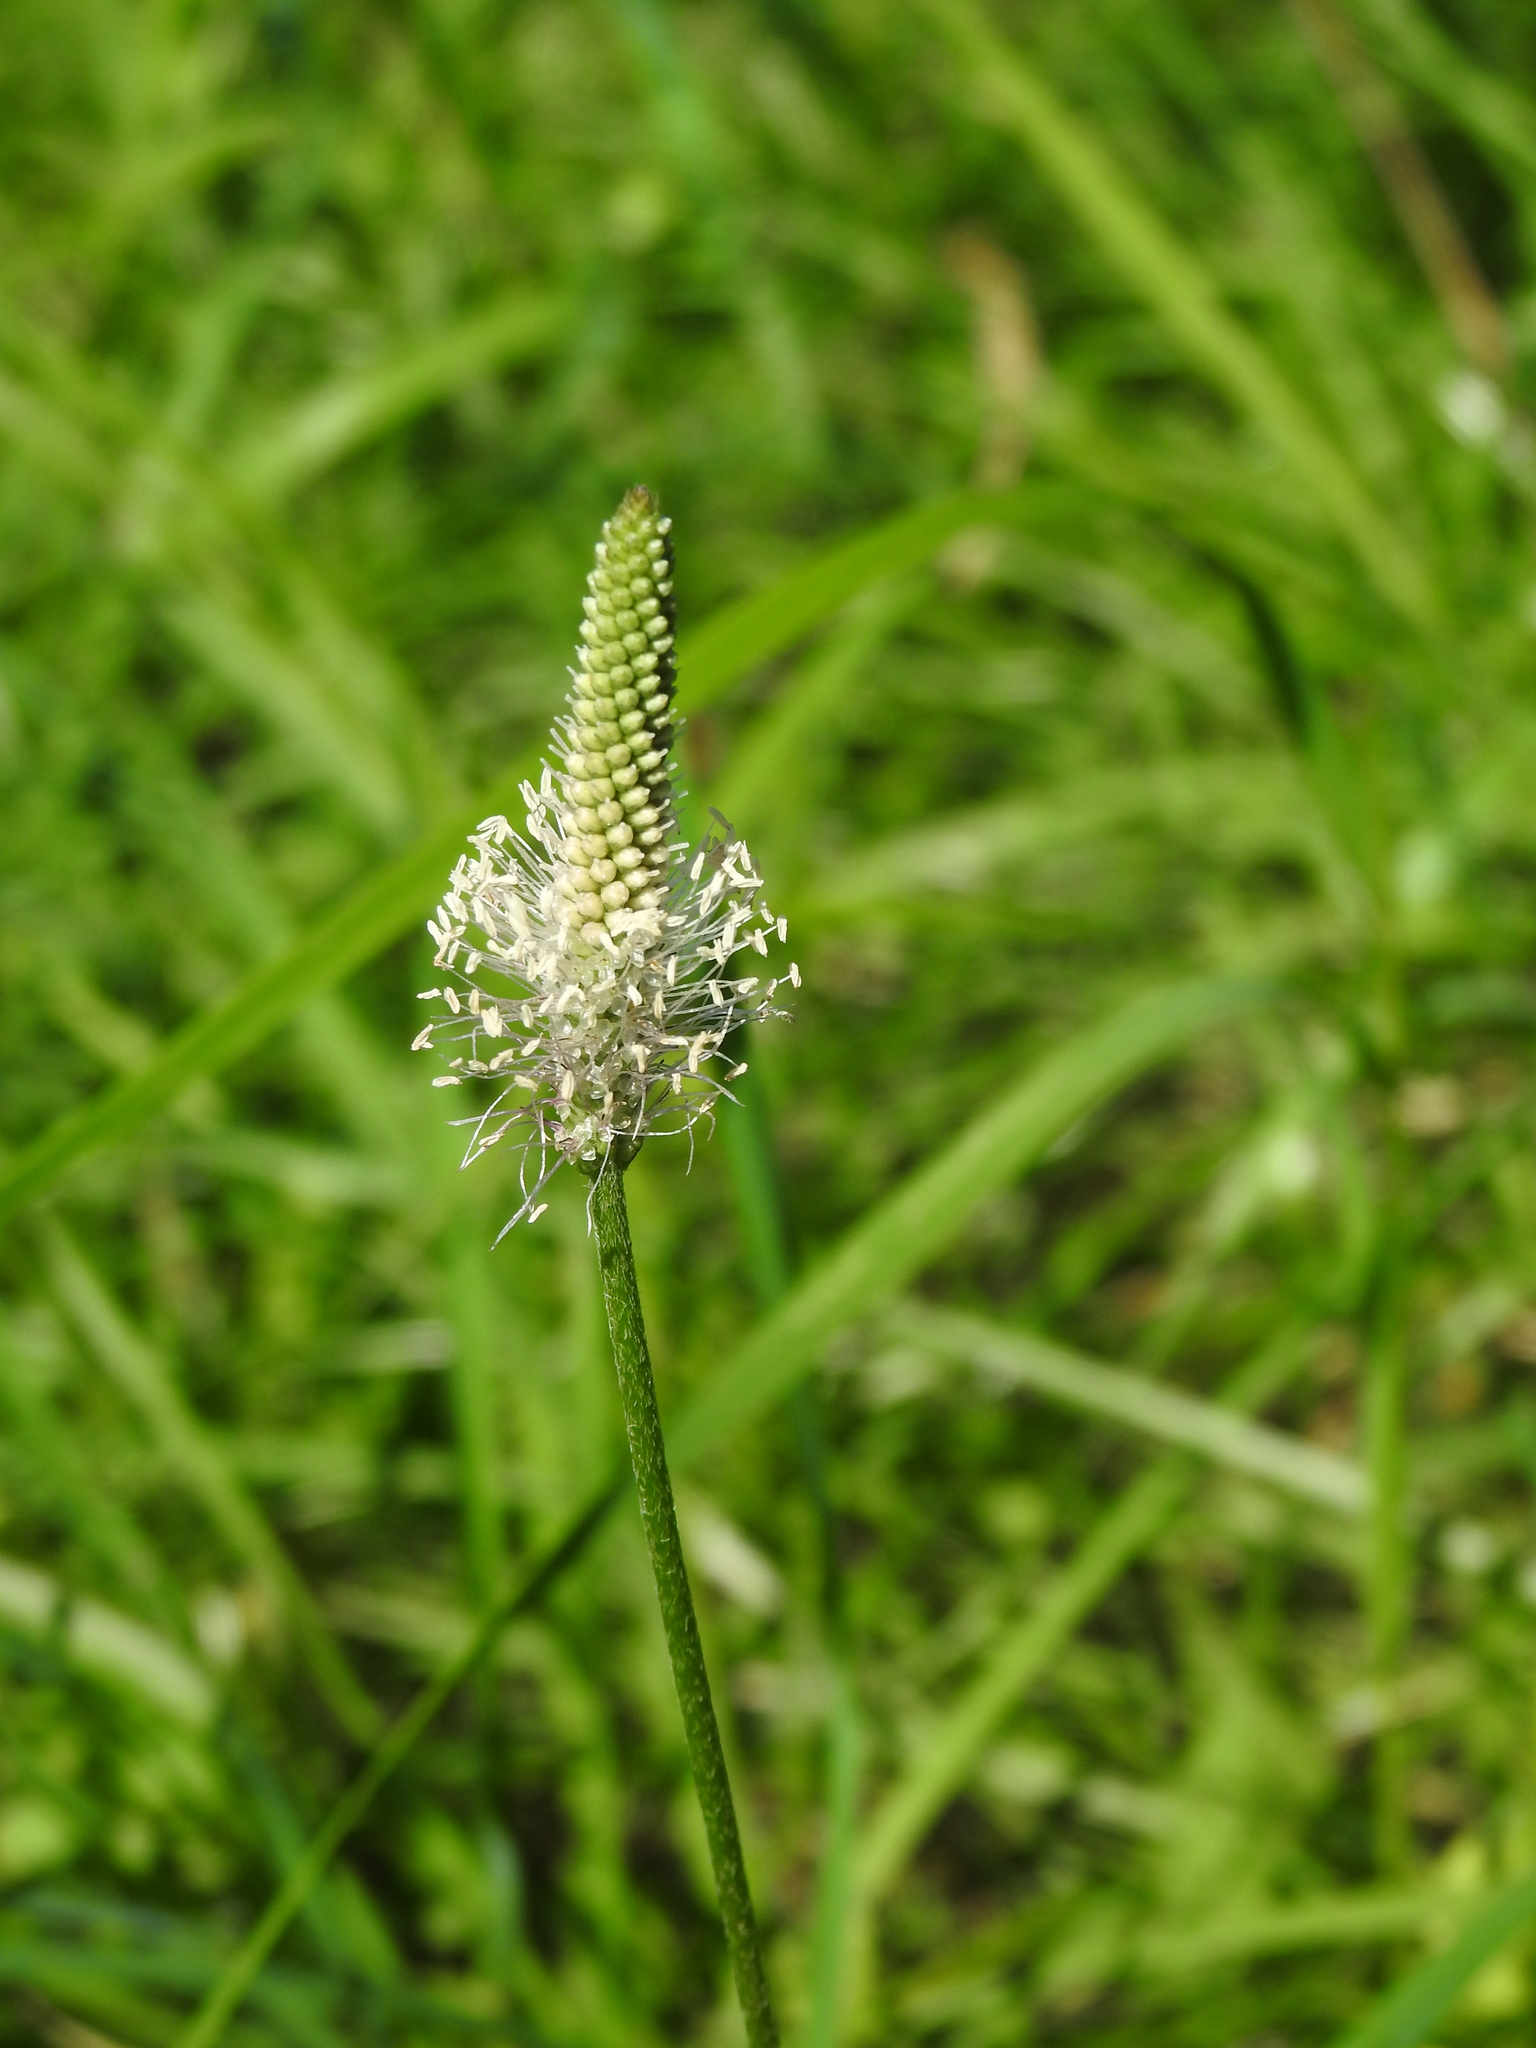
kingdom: Plantae
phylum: Tracheophyta
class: Magnoliopsida
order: Lamiales
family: Plantaginaceae
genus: Plantago
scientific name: Plantago media
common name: Hoary plantain
